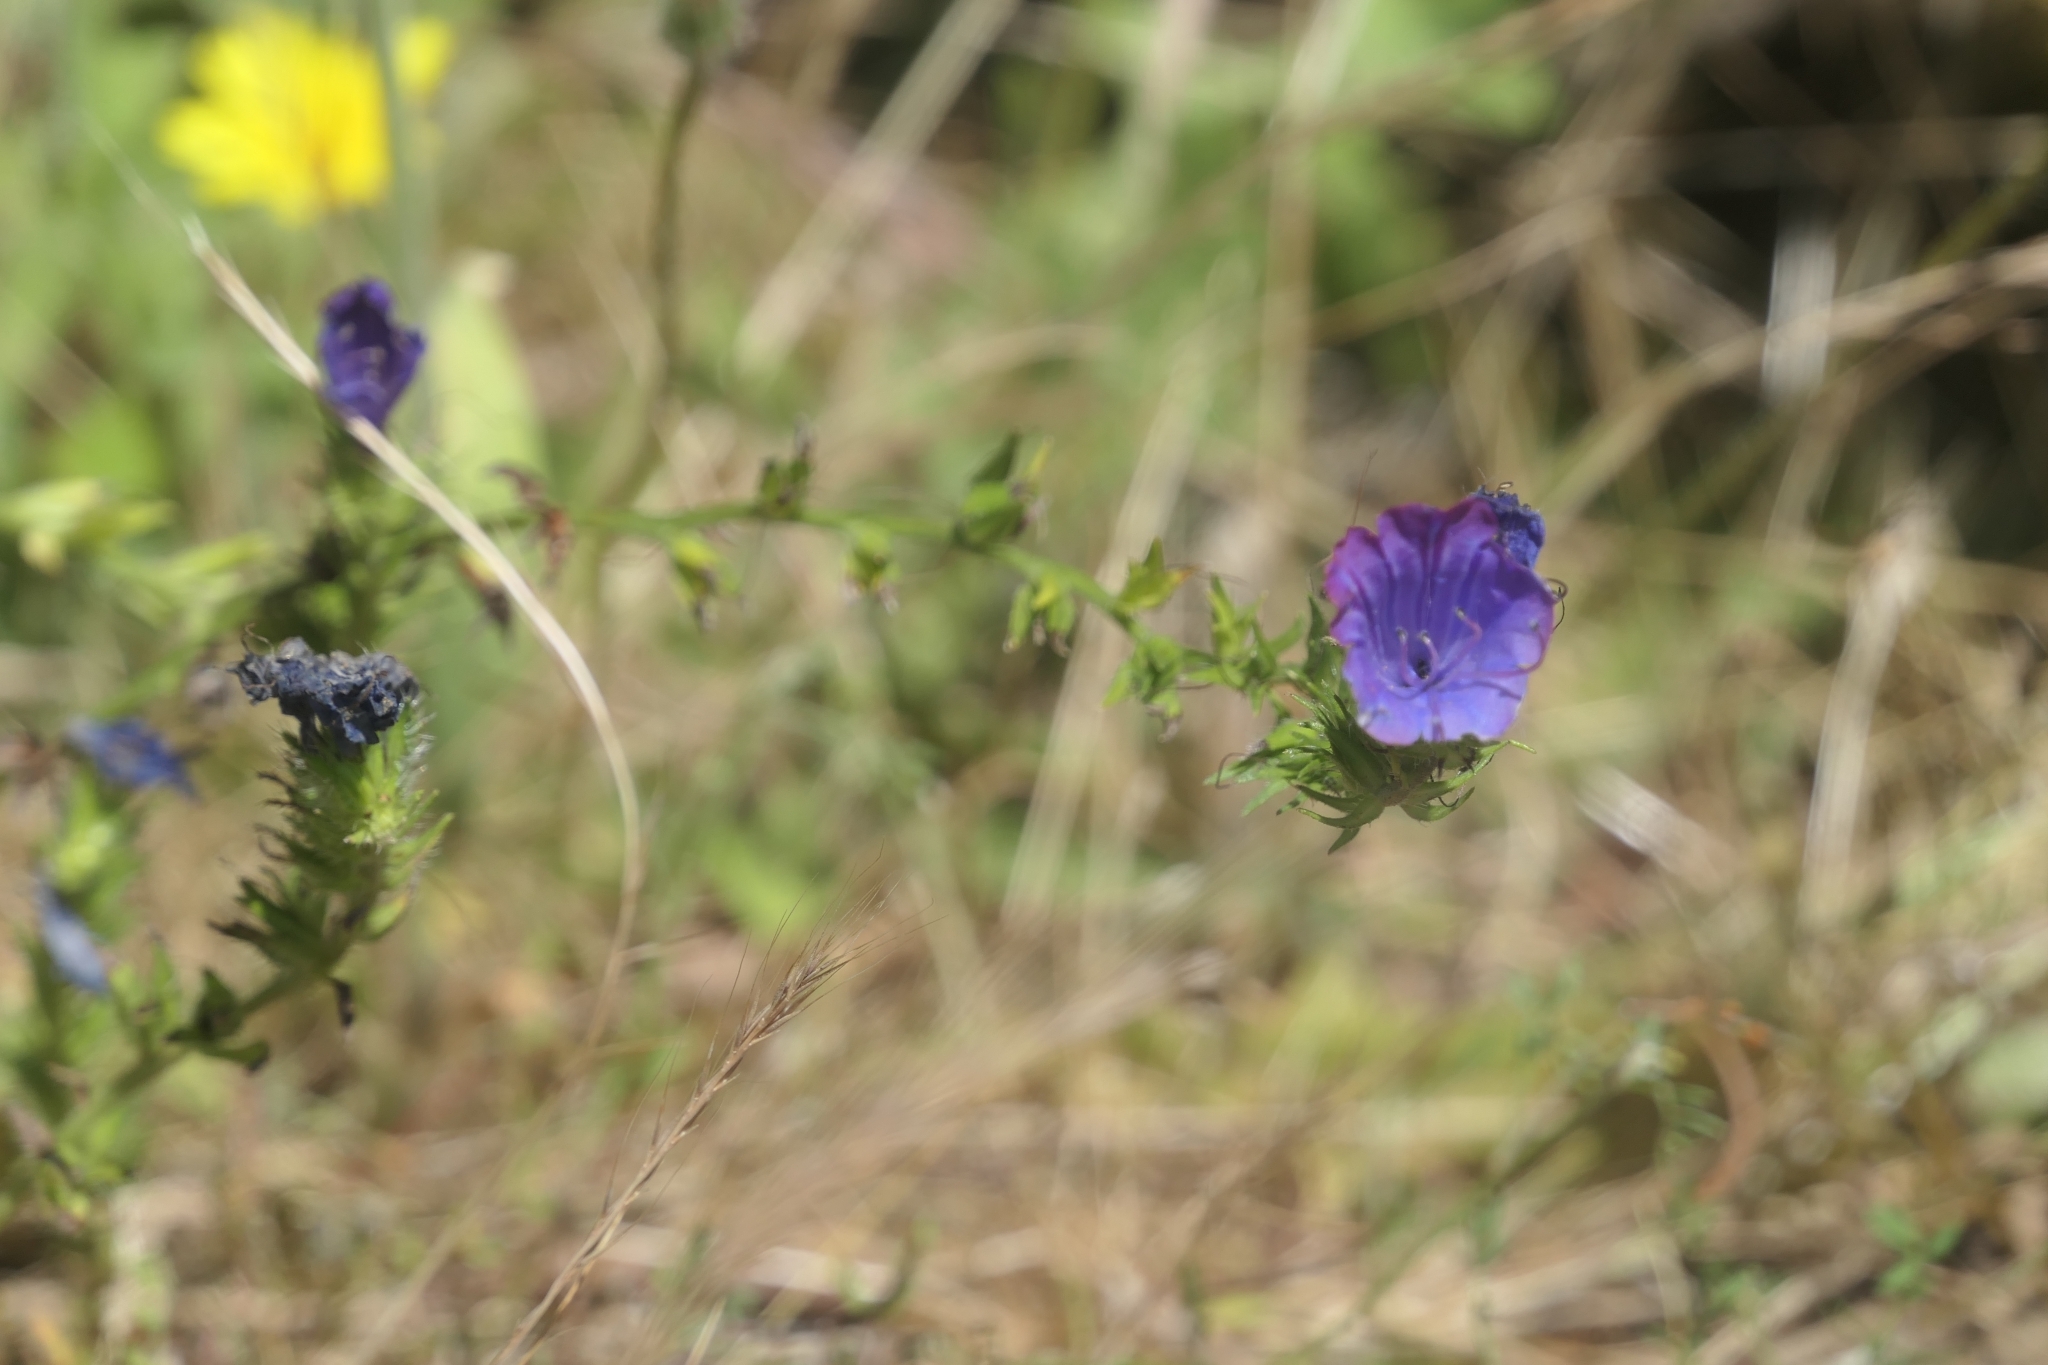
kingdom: Plantae
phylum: Tracheophyta
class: Magnoliopsida
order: Boraginales
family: Boraginaceae
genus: Echium
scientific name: Echium plantagineum
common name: Purple viper's-bugloss
